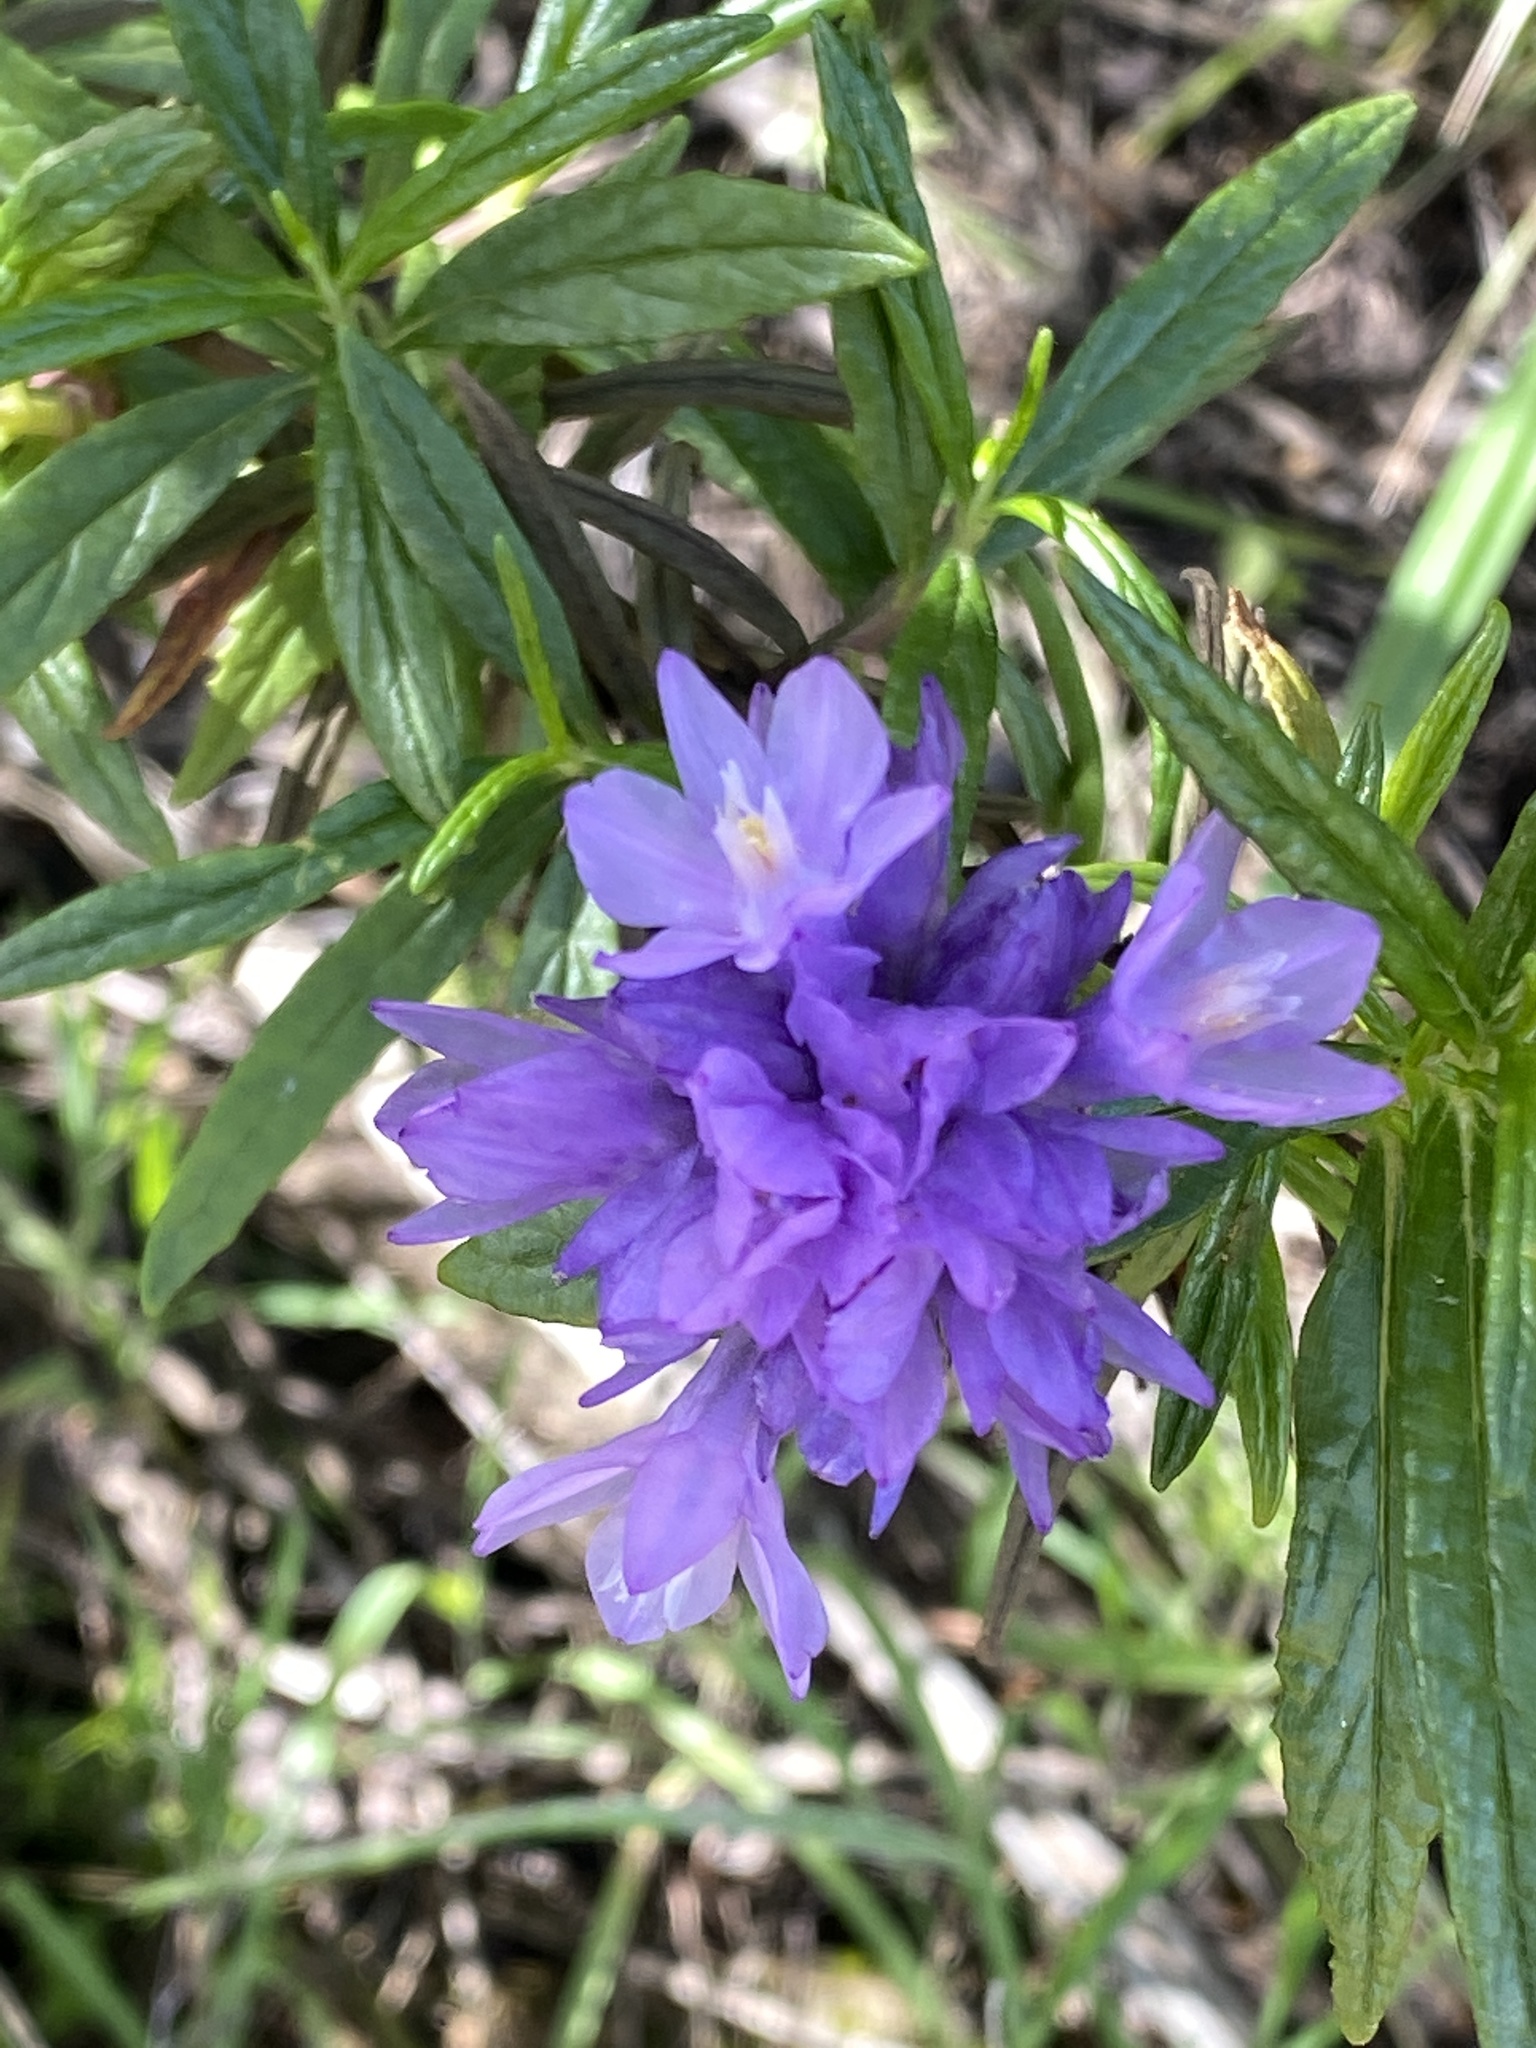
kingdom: Plantae
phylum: Tracheophyta
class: Liliopsida
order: Asparagales
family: Asparagaceae
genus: Dipterostemon
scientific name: Dipterostemon capitatus
